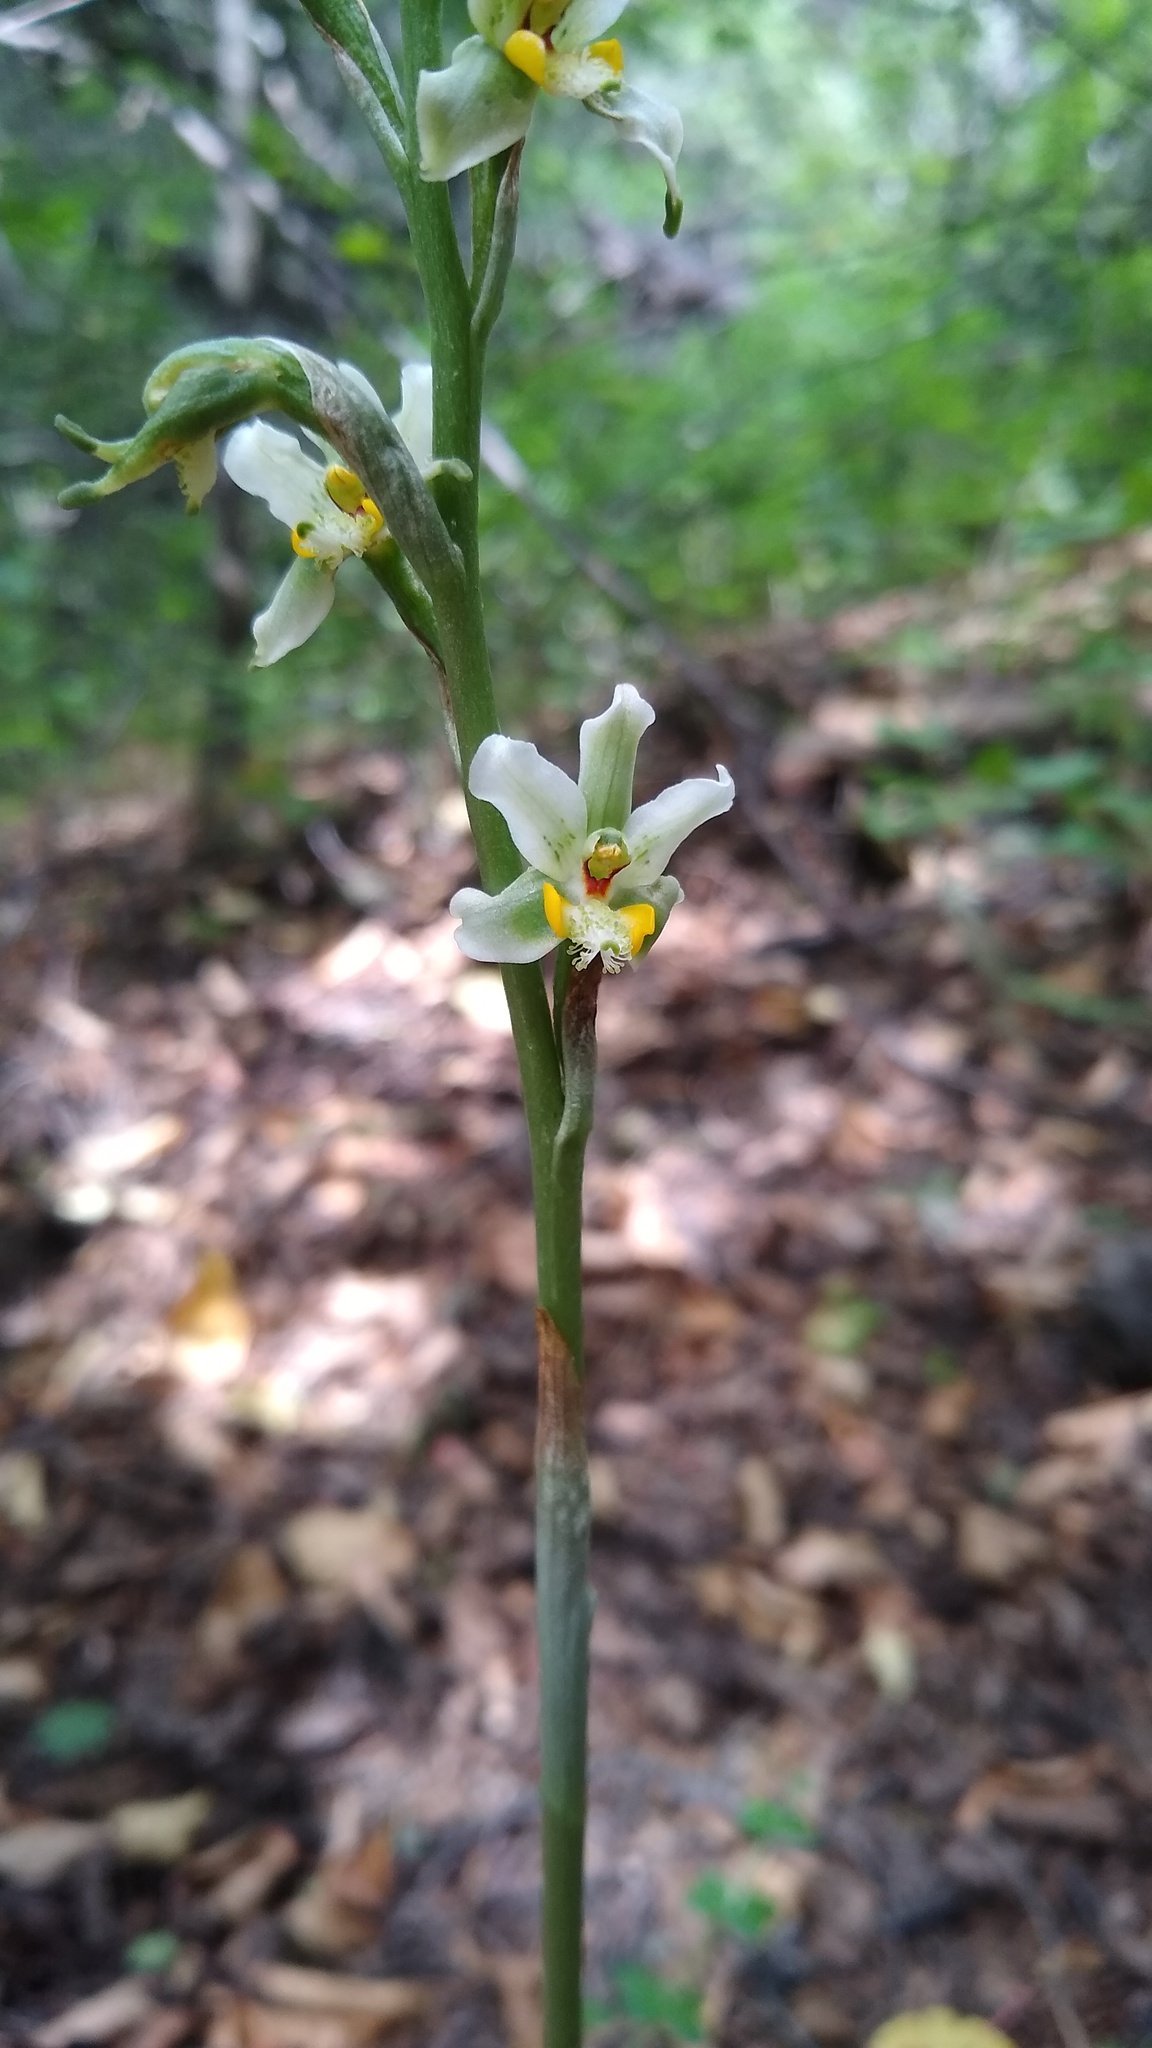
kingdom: Plantae
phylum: Tracheophyta
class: Liliopsida
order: Asparagales
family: Orchidaceae
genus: Gavilea
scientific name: Gavilea glandulifera
